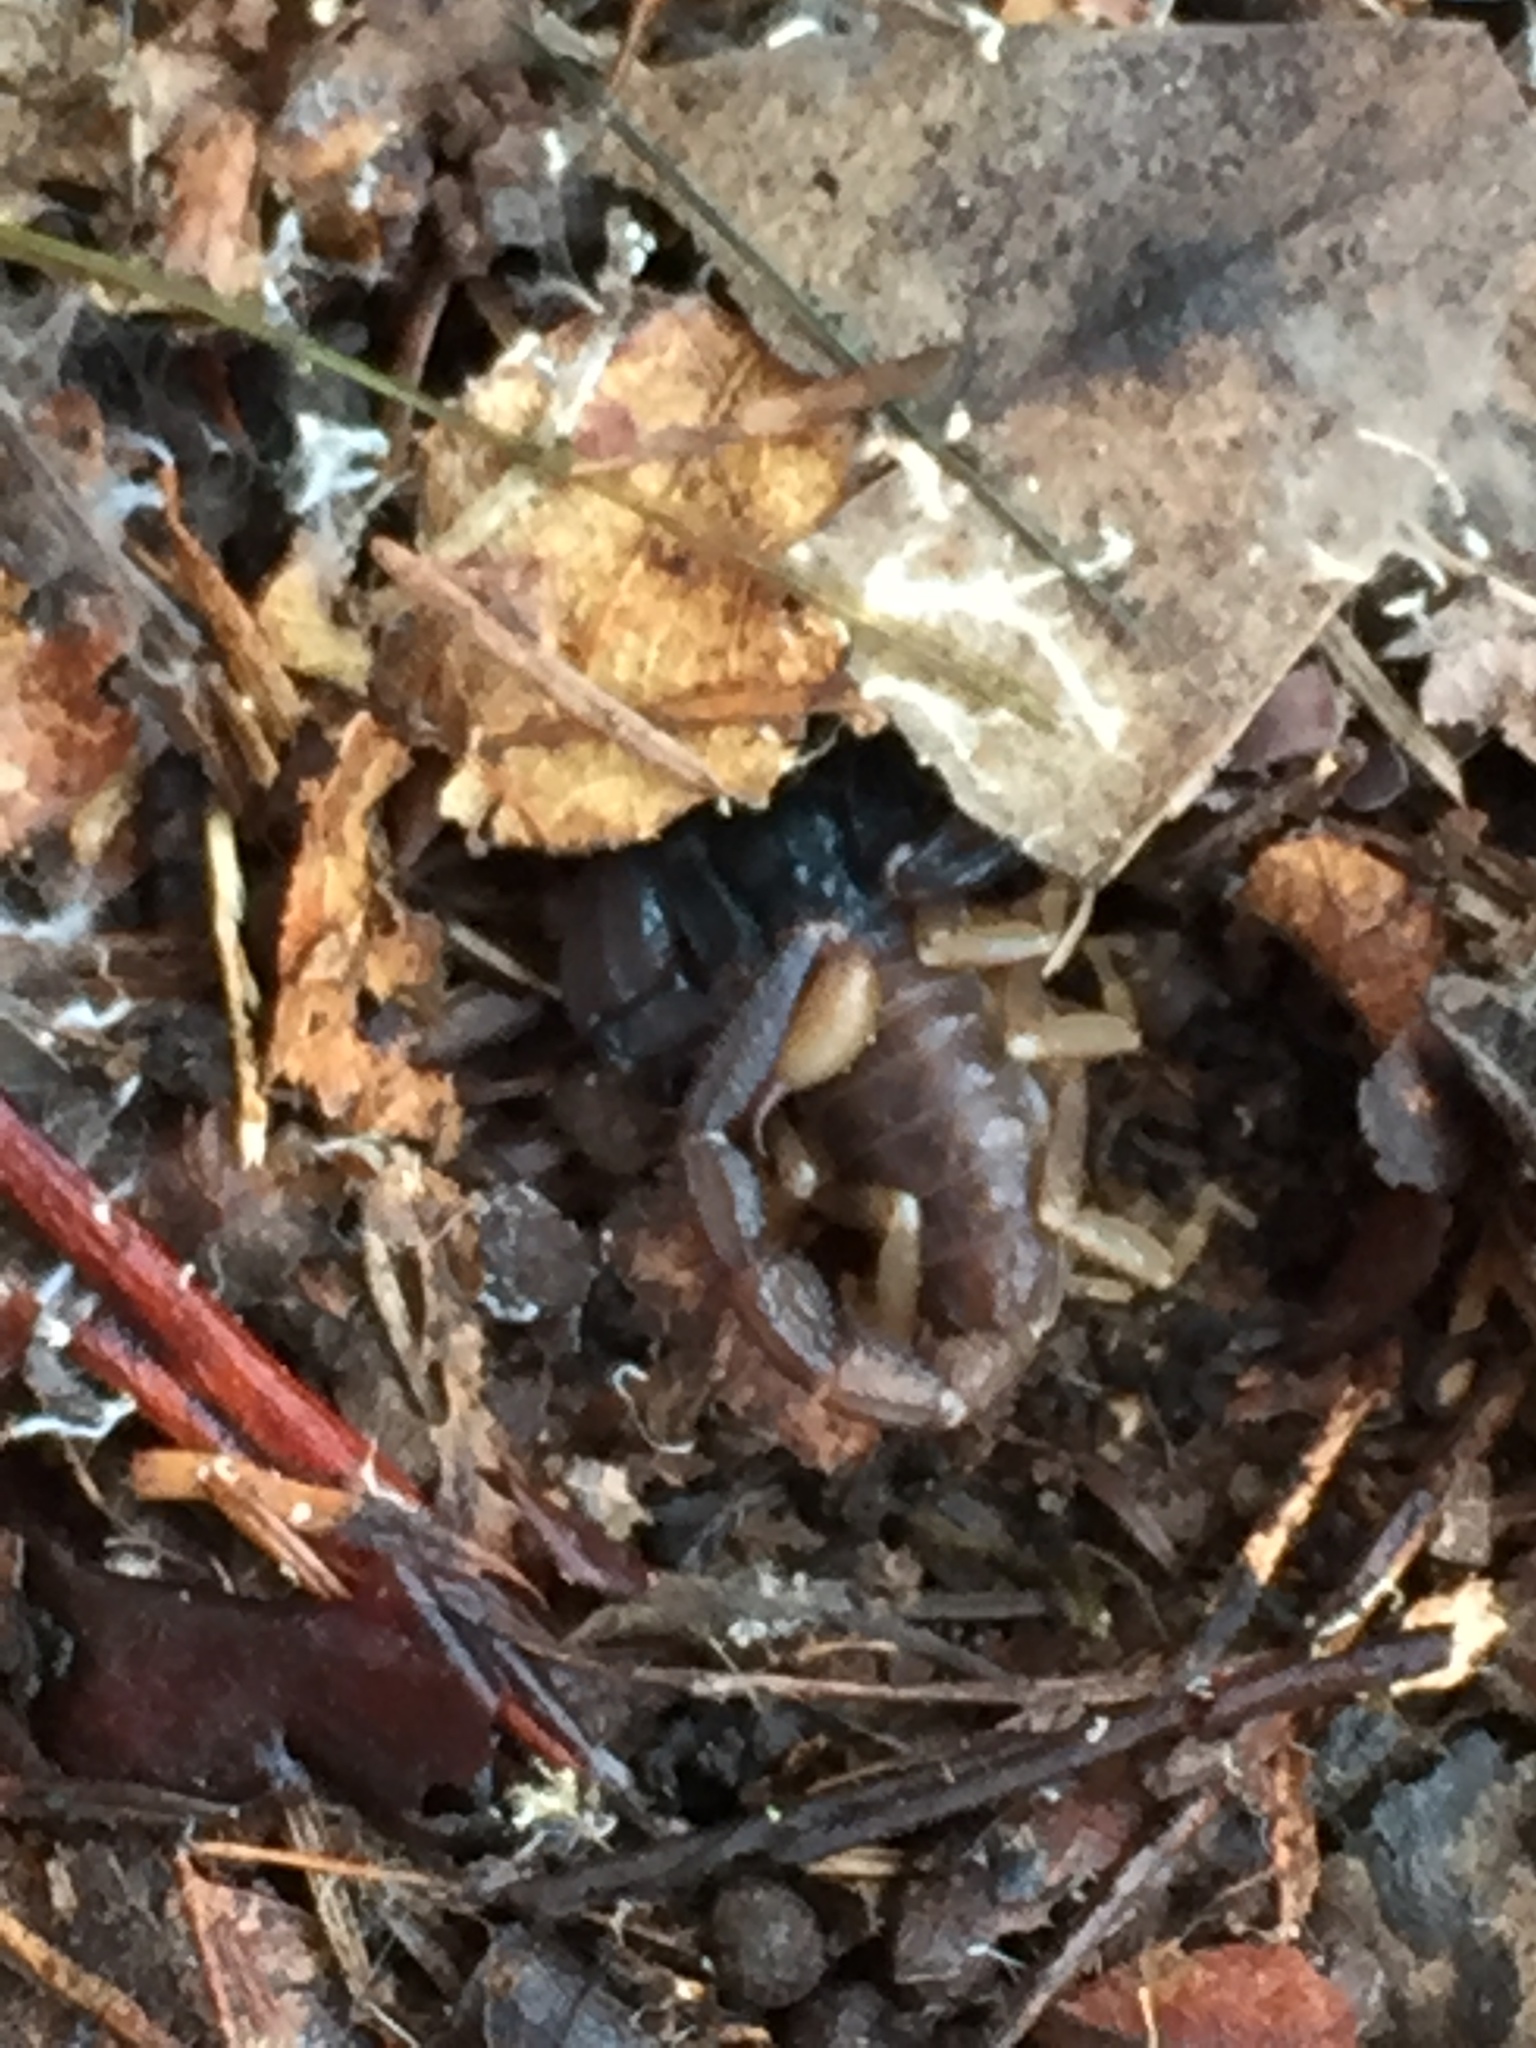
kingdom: Animalia
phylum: Arthropoda
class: Arachnida
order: Scorpiones
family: Chactidae
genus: Uroctonus
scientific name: Uroctonus mordax
